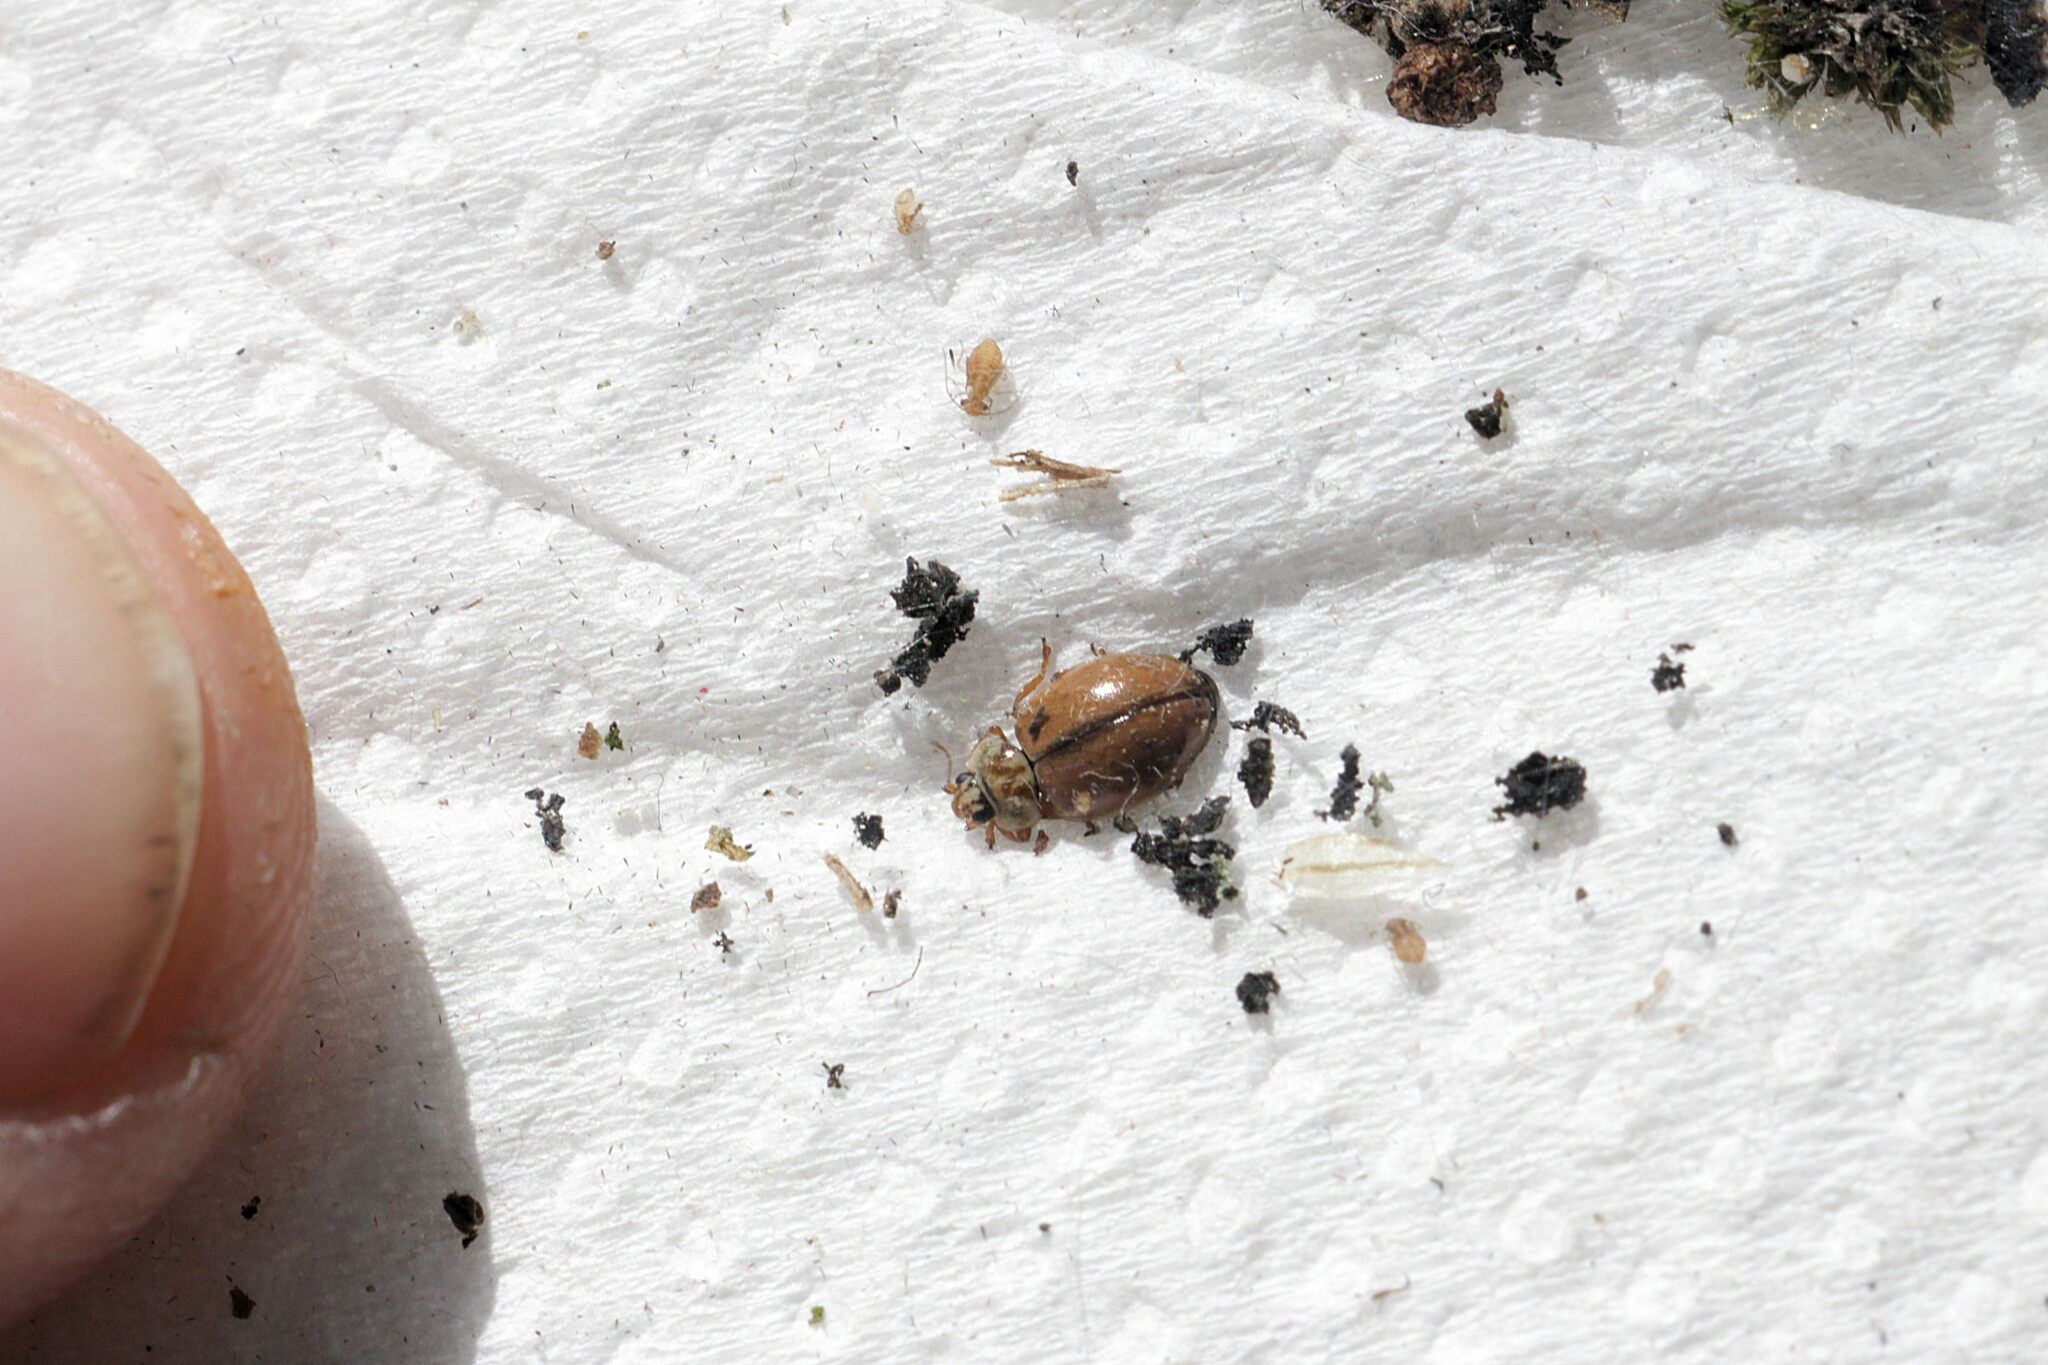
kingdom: Animalia
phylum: Arthropoda
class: Insecta
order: Coleoptera
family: Coccinellidae
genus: Aphidecta
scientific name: Aphidecta obliterata
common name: Larch ladybird
